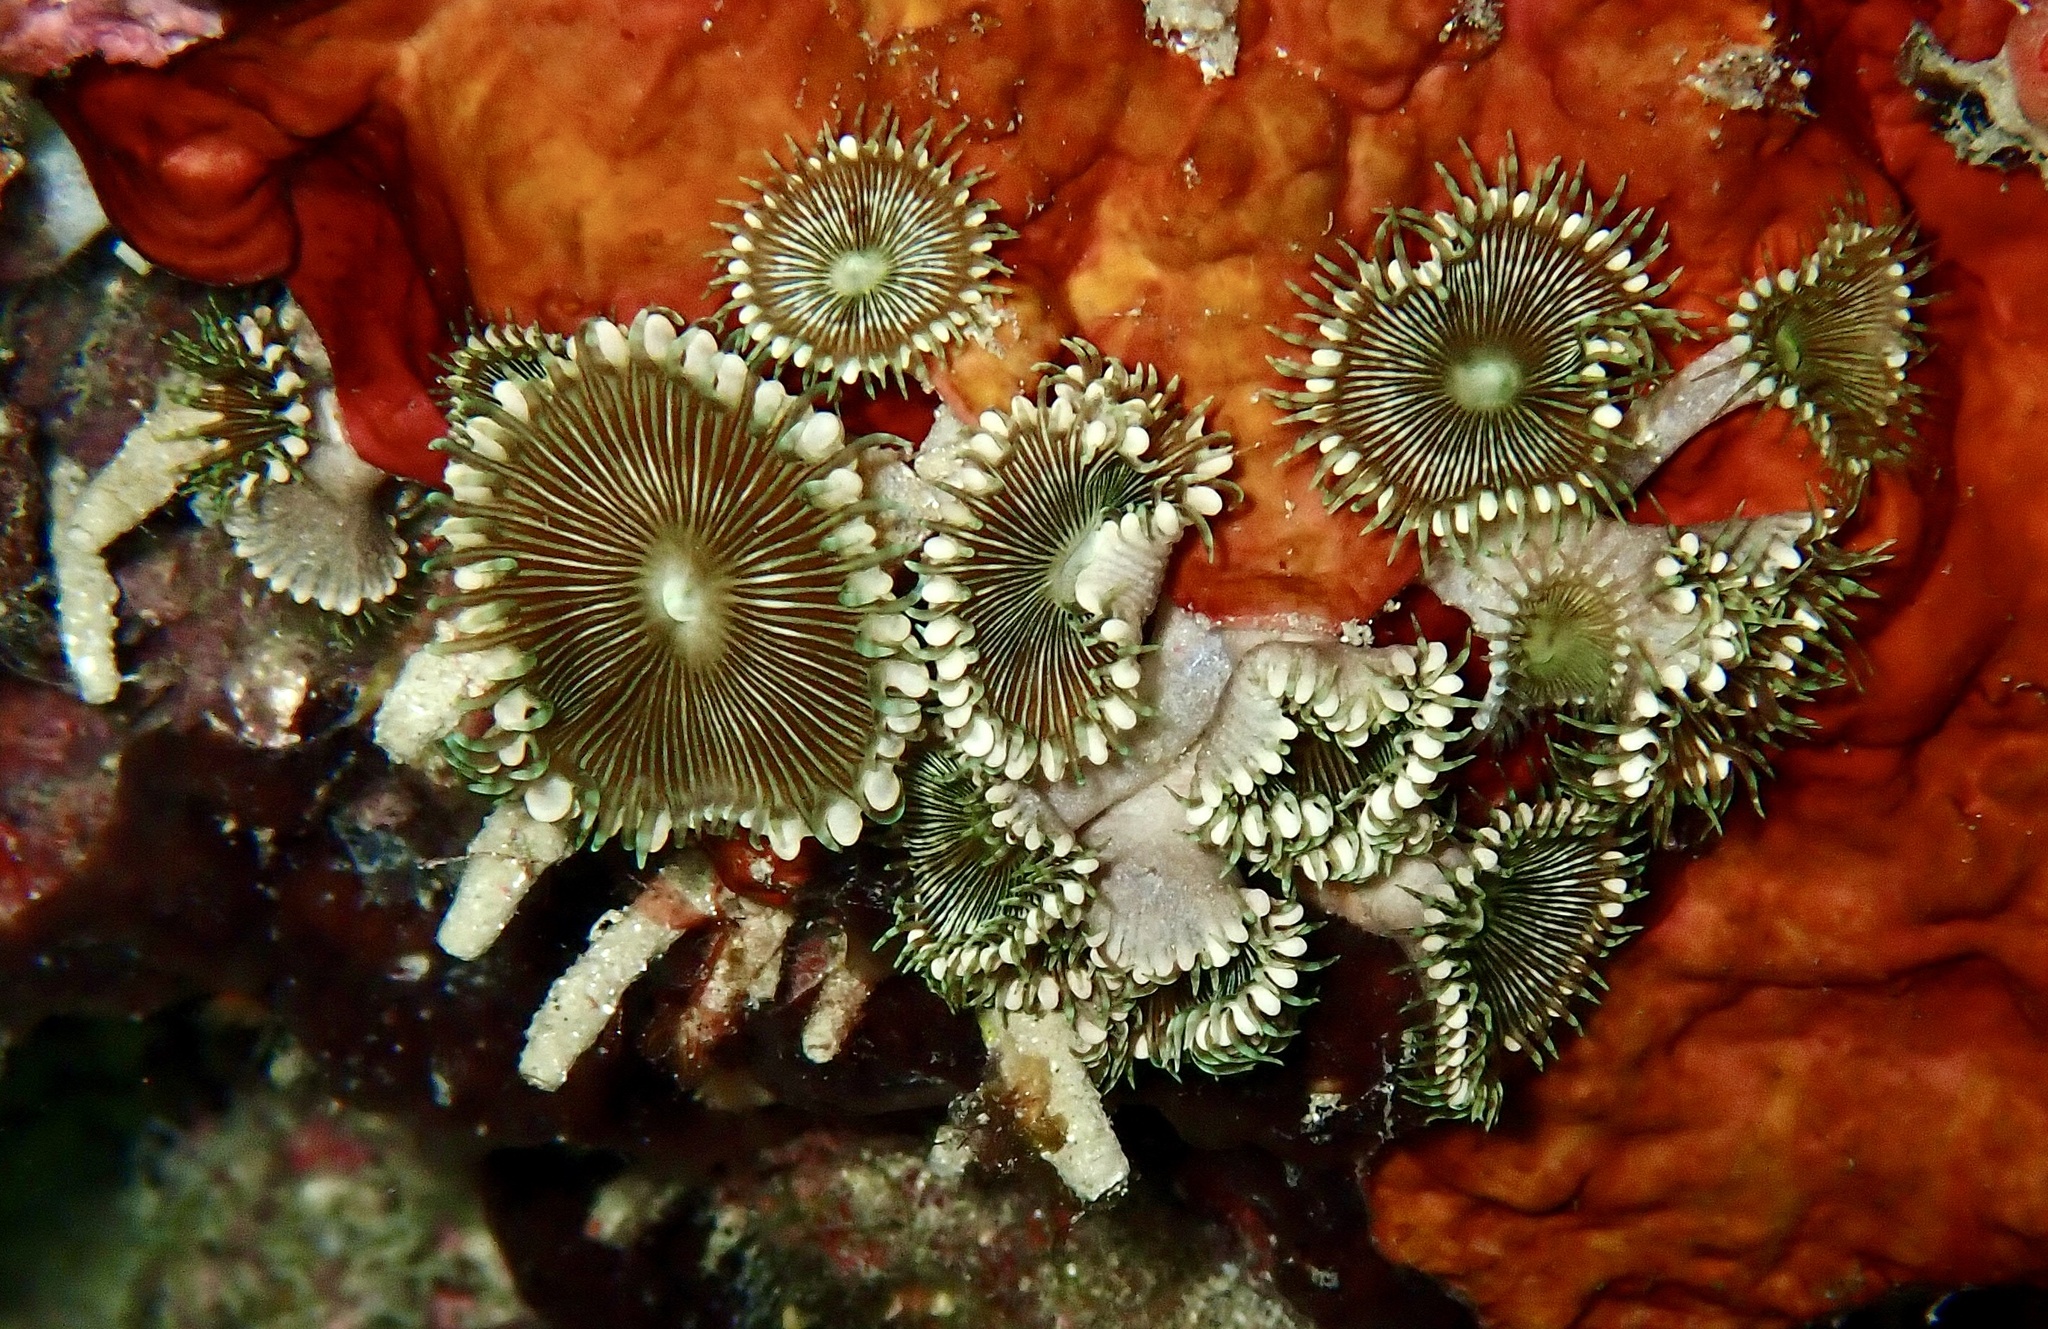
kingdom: Animalia
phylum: Cnidaria
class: Anthozoa
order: Zoantharia
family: Sphenopidae
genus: Palythoa
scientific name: Palythoa heliodiscus
